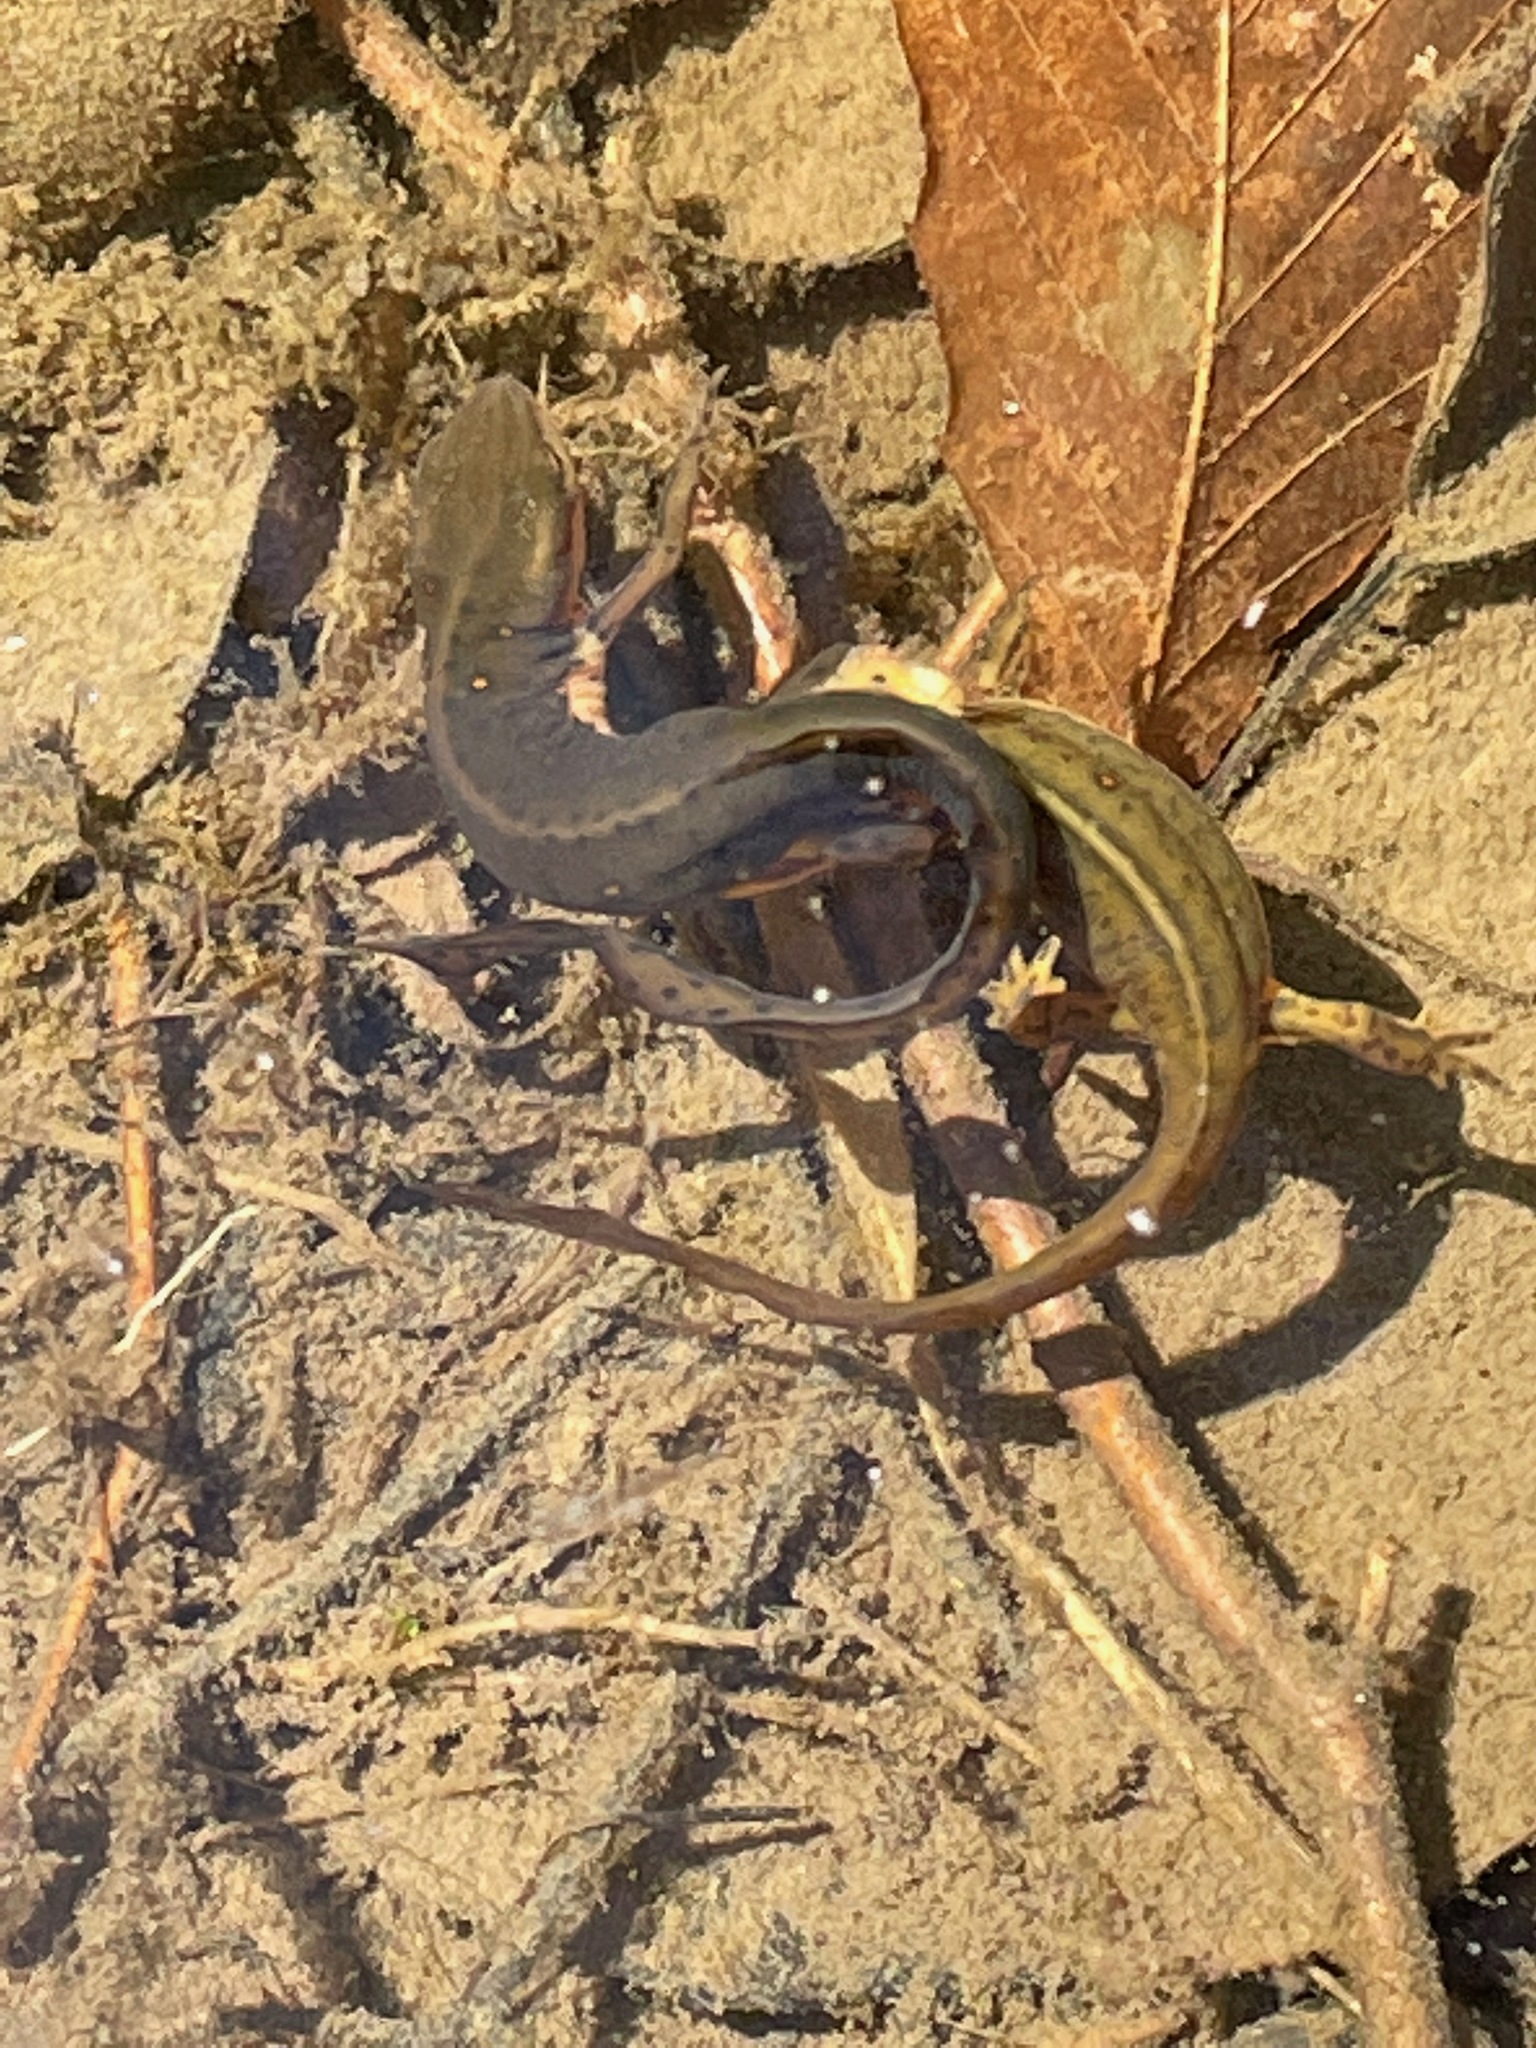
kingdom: Animalia
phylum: Chordata
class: Amphibia
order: Caudata
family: Salamandridae
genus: Notophthalmus
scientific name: Notophthalmus viridescens
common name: Eastern newt
